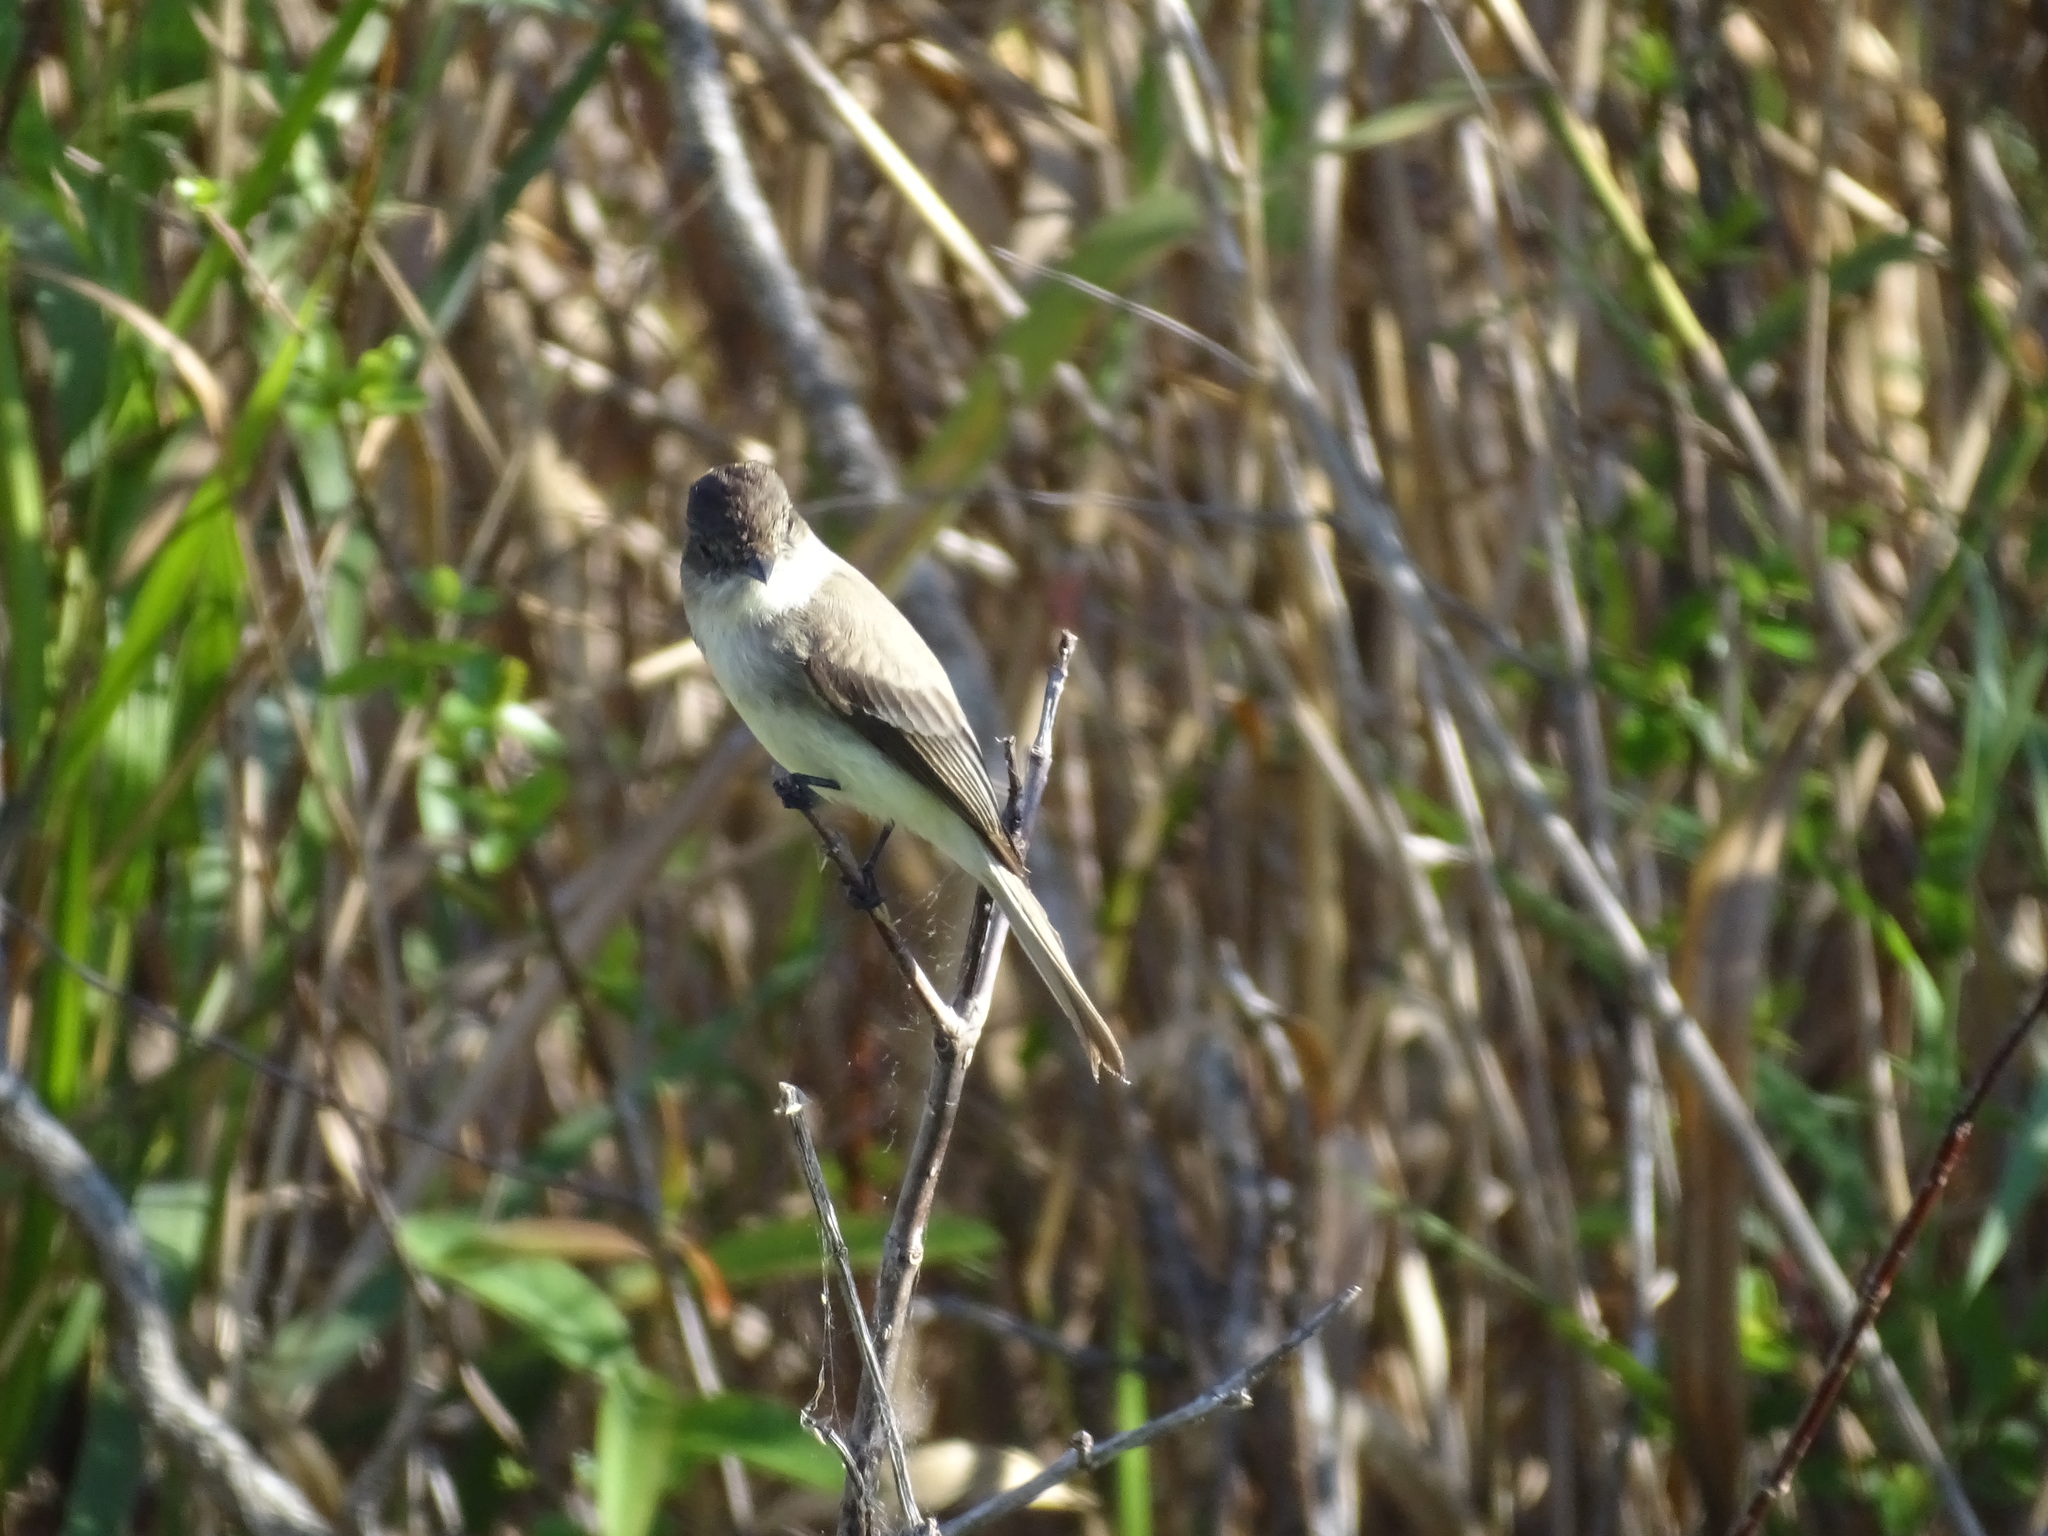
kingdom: Animalia
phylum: Chordata
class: Aves
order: Passeriformes
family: Tyrannidae
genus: Sayornis
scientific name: Sayornis phoebe
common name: Eastern phoebe
